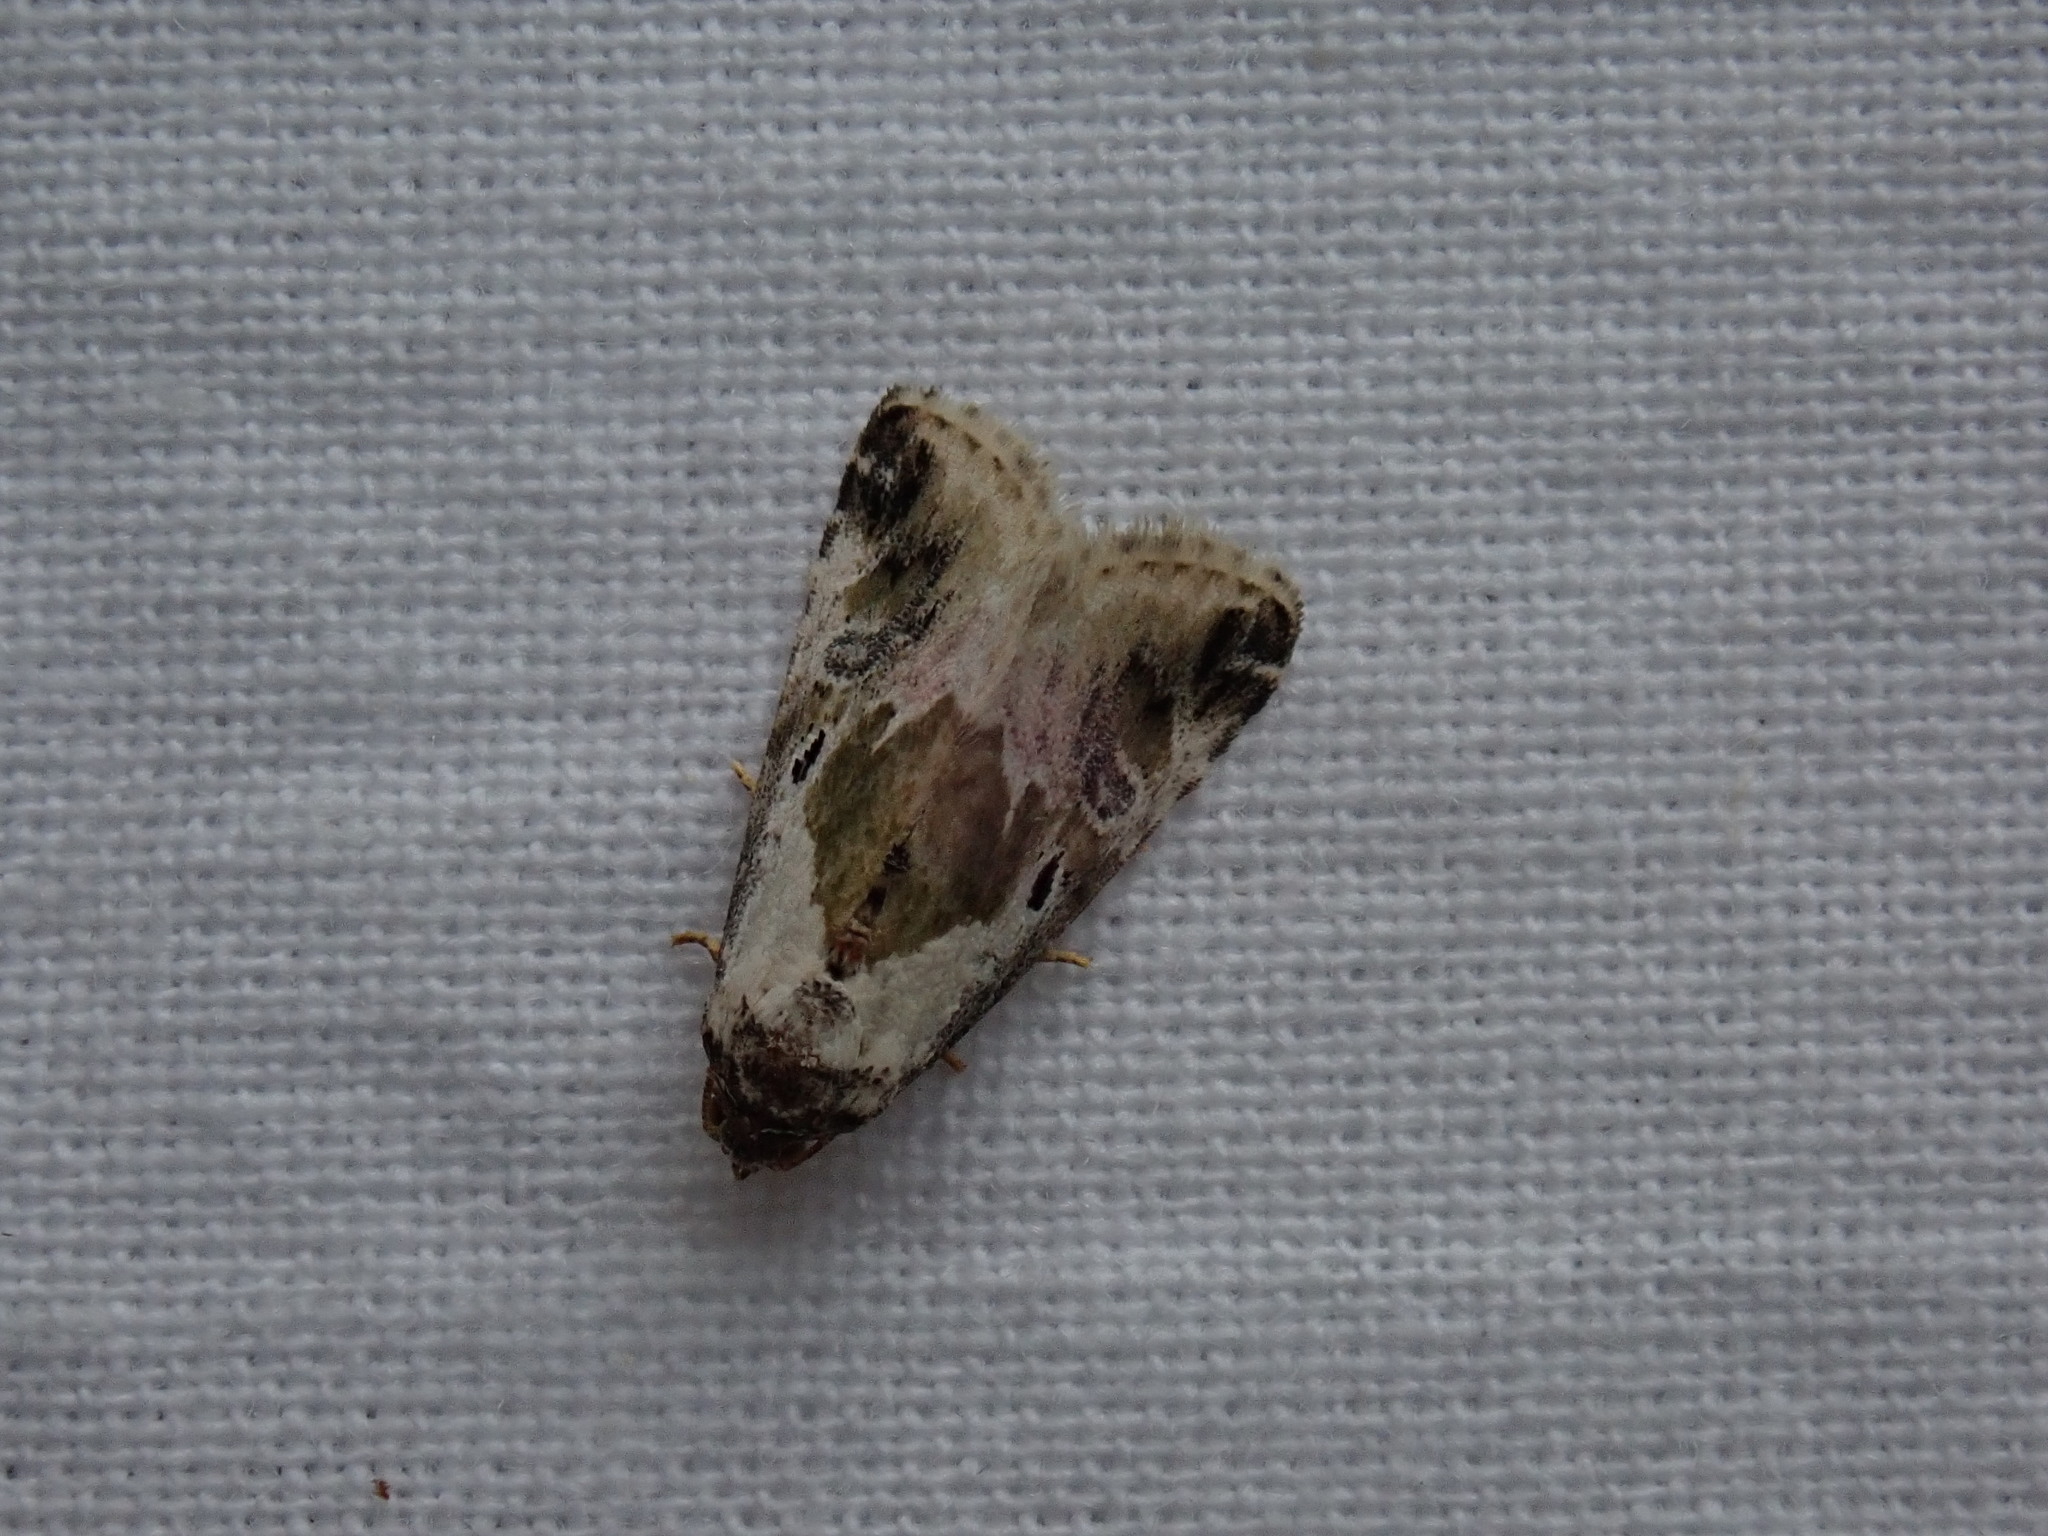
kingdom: Animalia
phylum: Arthropoda
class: Insecta
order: Lepidoptera
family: Noctuidae
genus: Maliattha
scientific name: Maliattha synochitis
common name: Black-dotted glyph
